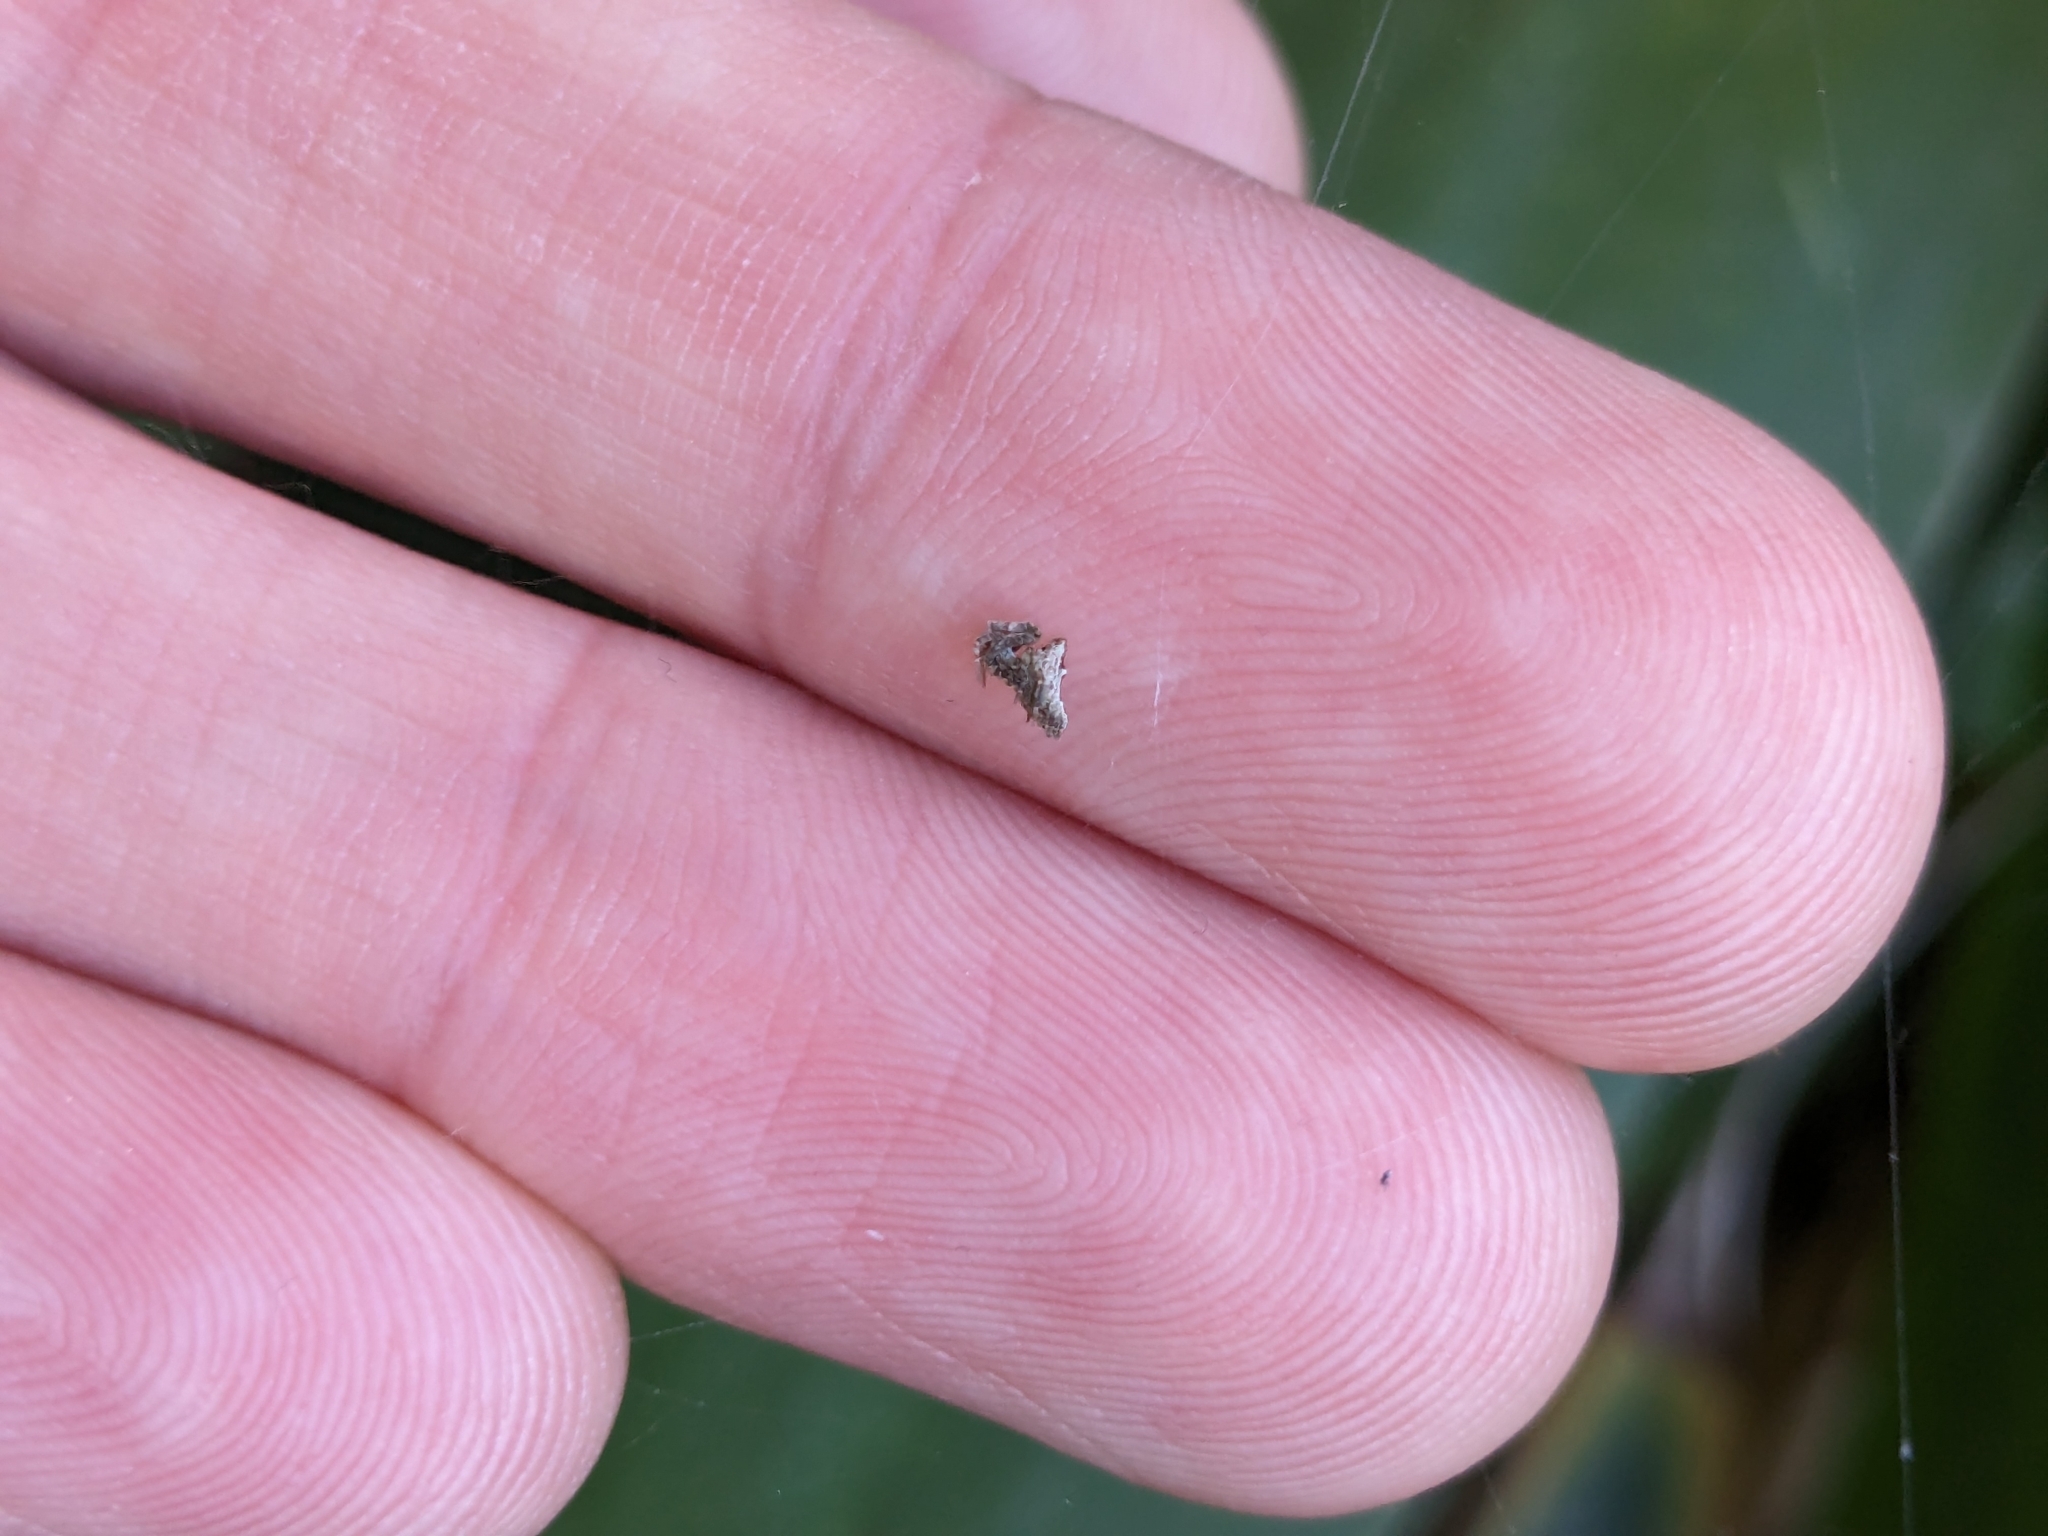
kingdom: Animalia
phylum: Arthropoda
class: Arachnida
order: Araneae
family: Uloboridae
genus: Philoponella
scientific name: Philoponella congregabilis
